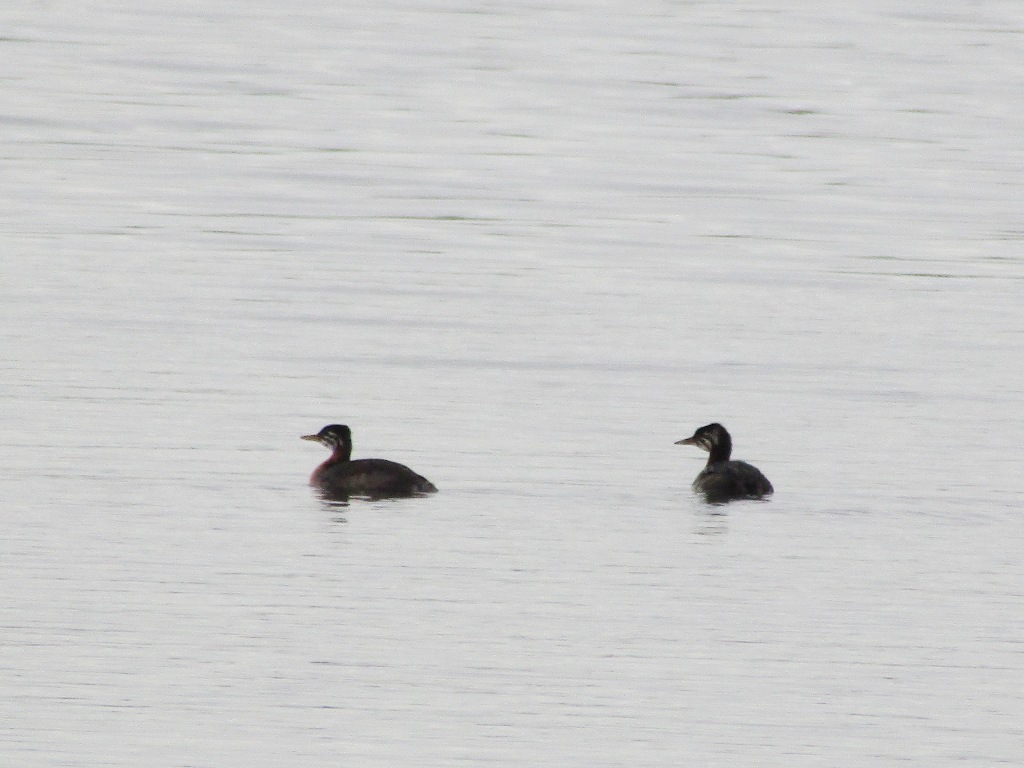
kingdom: Animalia
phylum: Chordata
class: Aves
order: Podicipediformes
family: Podicipedidae
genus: Podiceps
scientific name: Podiceps grisegena
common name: Red-necked grebe
